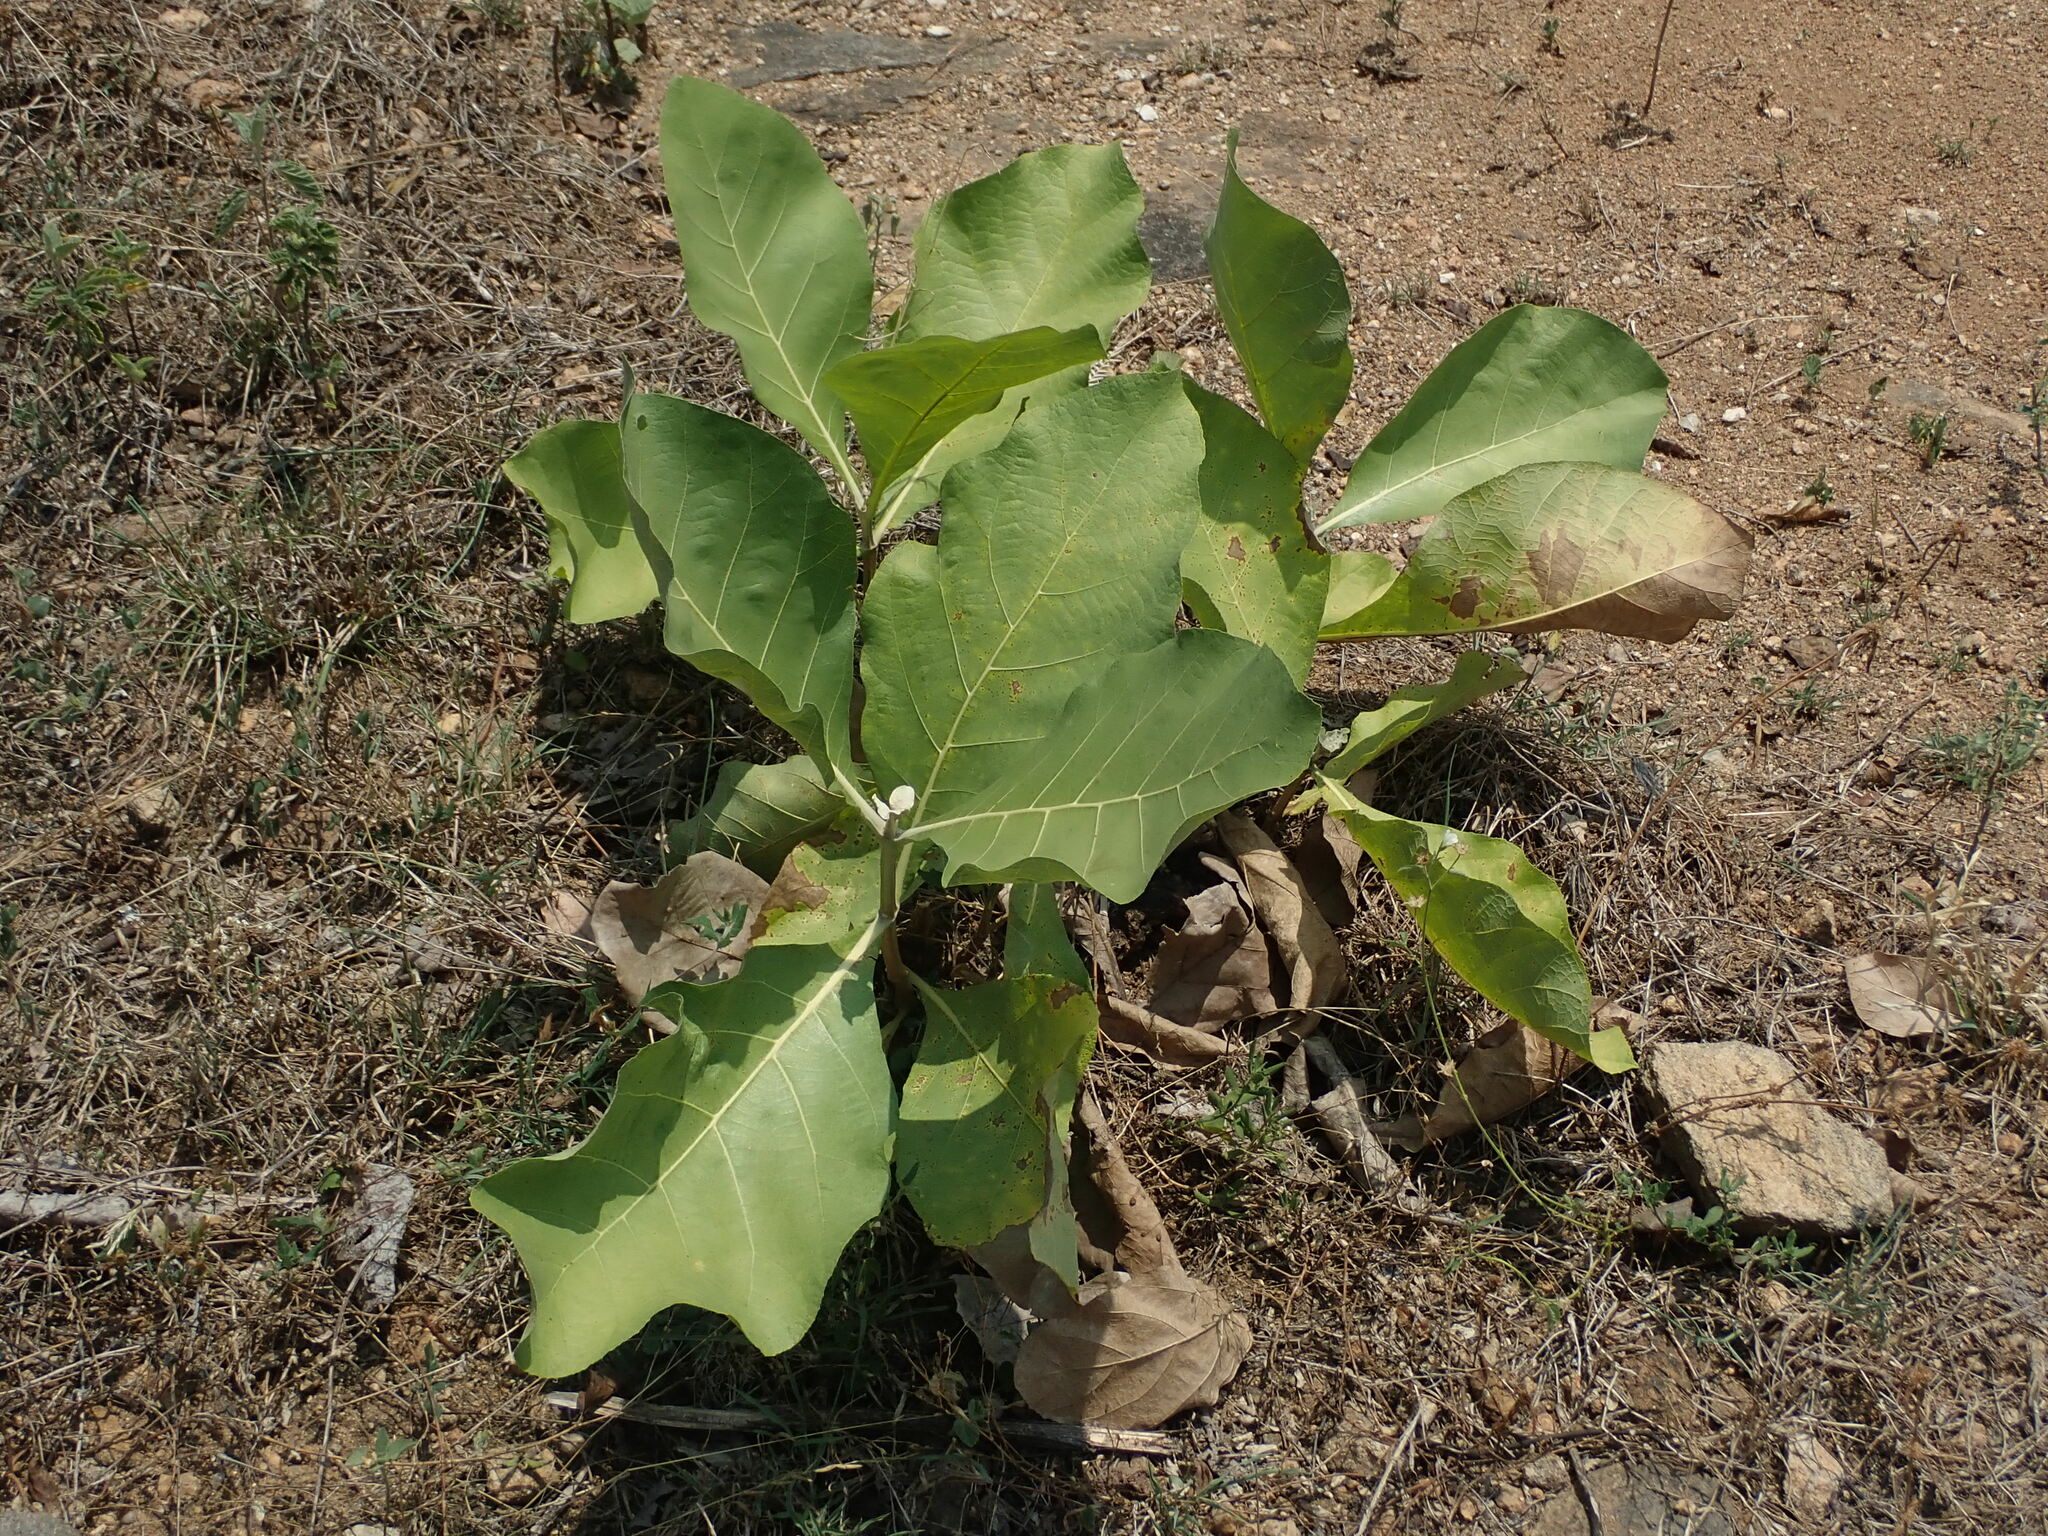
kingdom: Plantae
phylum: Tracheophyta
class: Magnoliopsida
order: Lamiales
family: Lamiaceae
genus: Tectona
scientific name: Tectona grandis
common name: Teak
